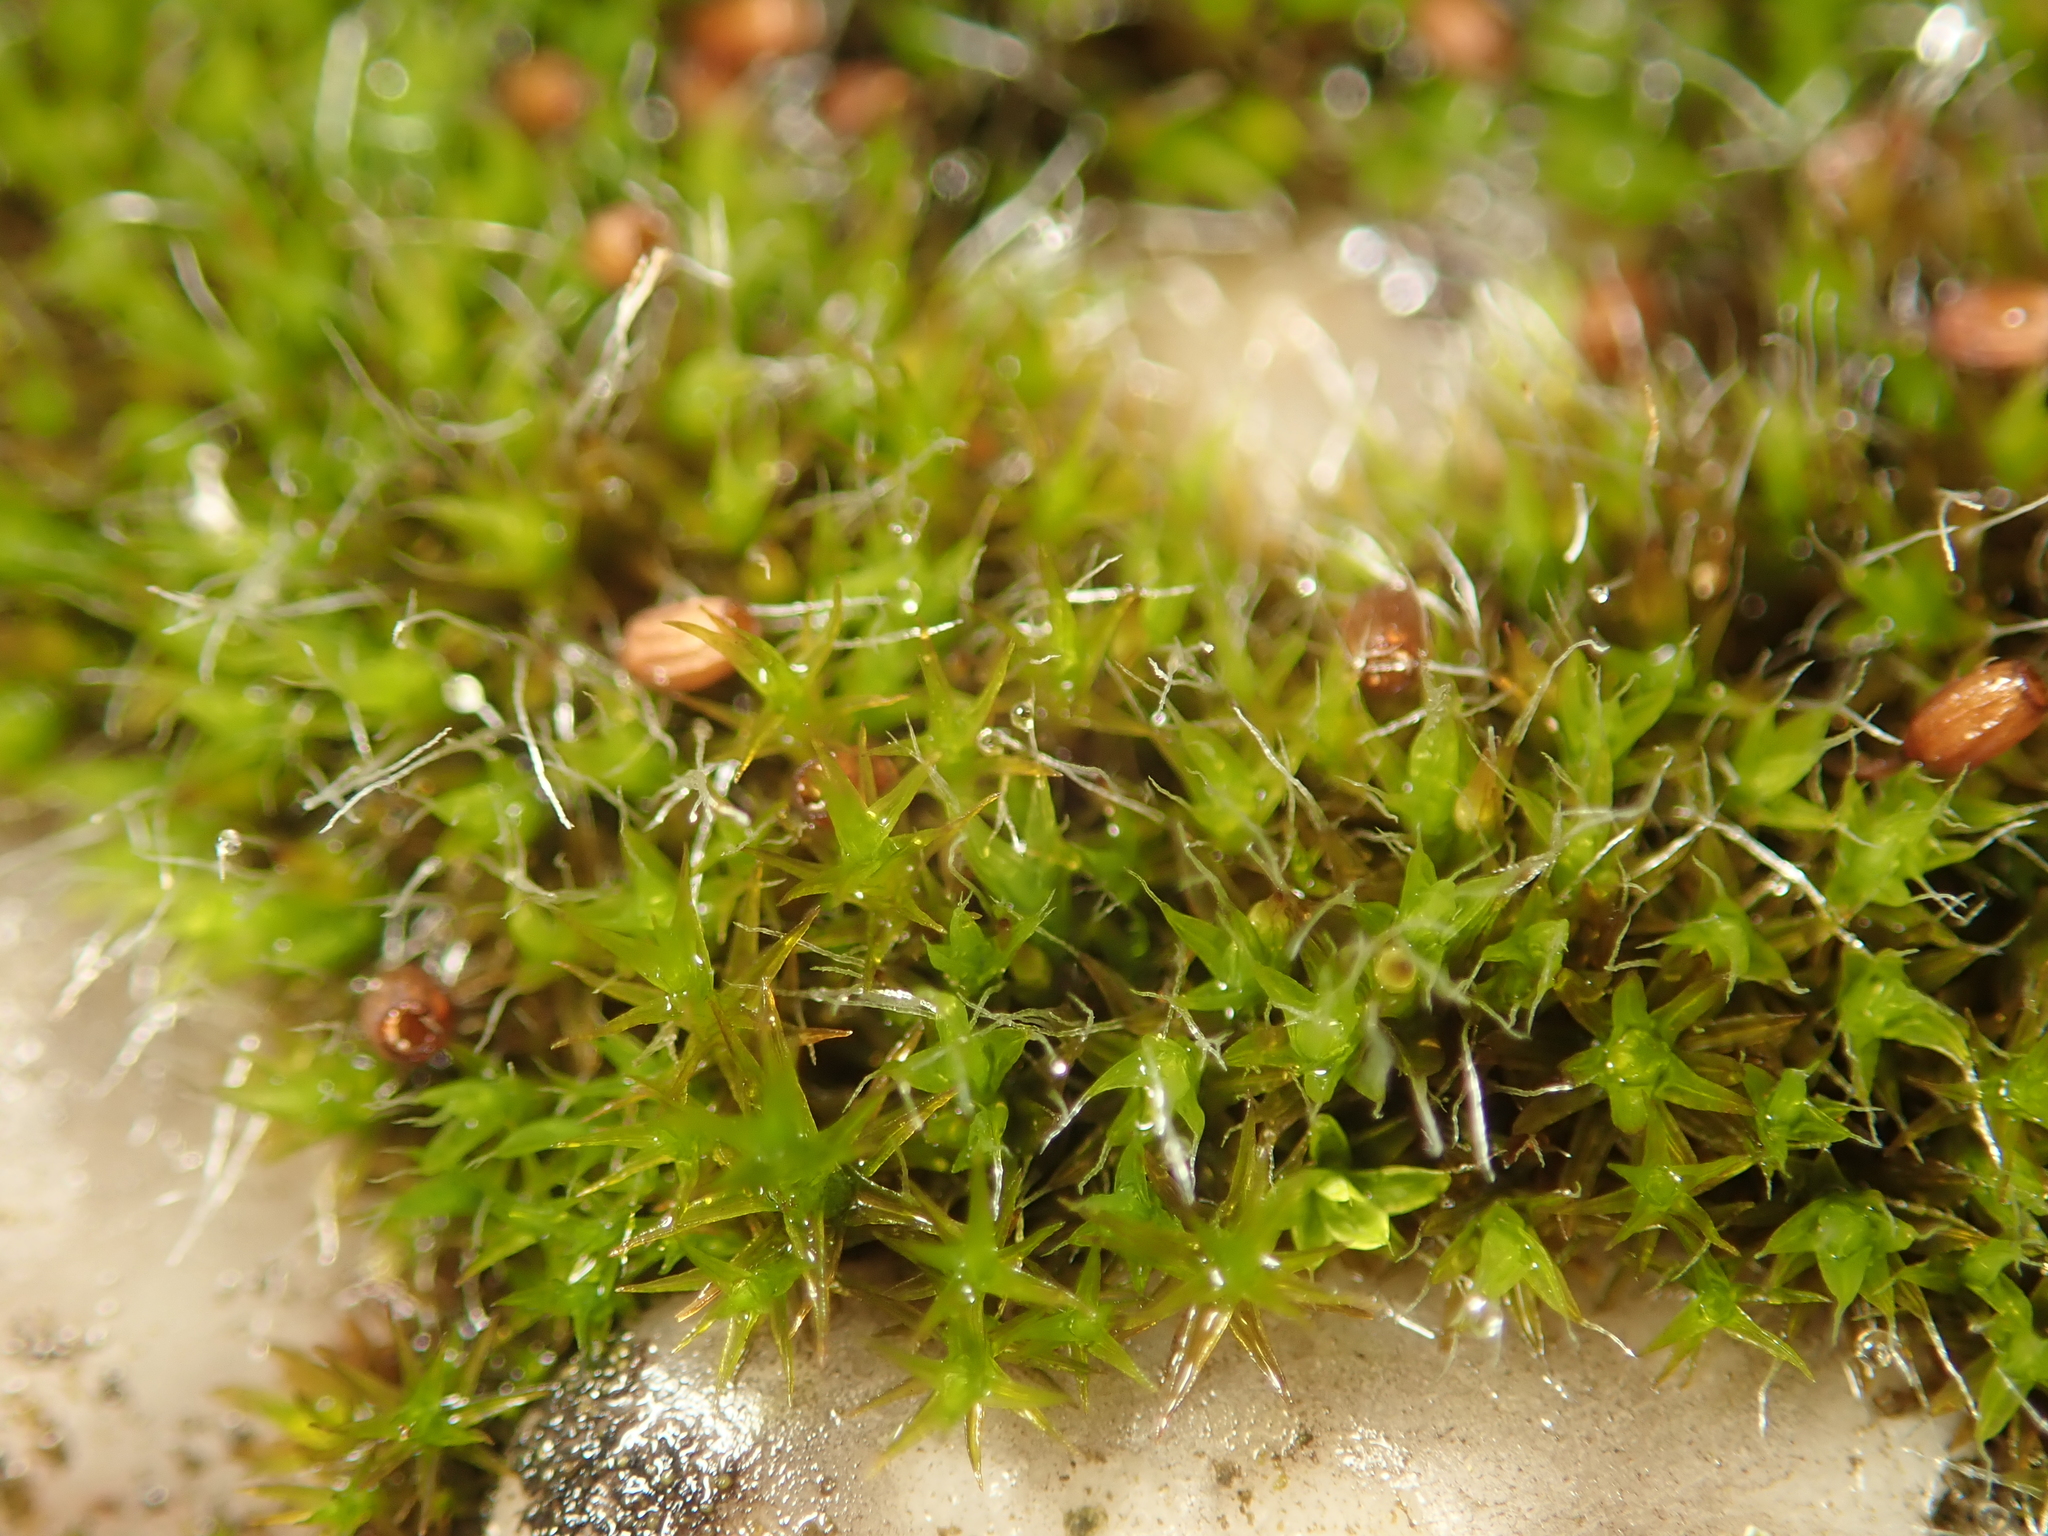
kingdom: Plantae
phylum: Bryophyta
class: Bryopsida
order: Grimmiales
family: Grimmiaceae
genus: Grimmia
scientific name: Grimmia pulvinata
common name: Grey-cushioned grimmia
